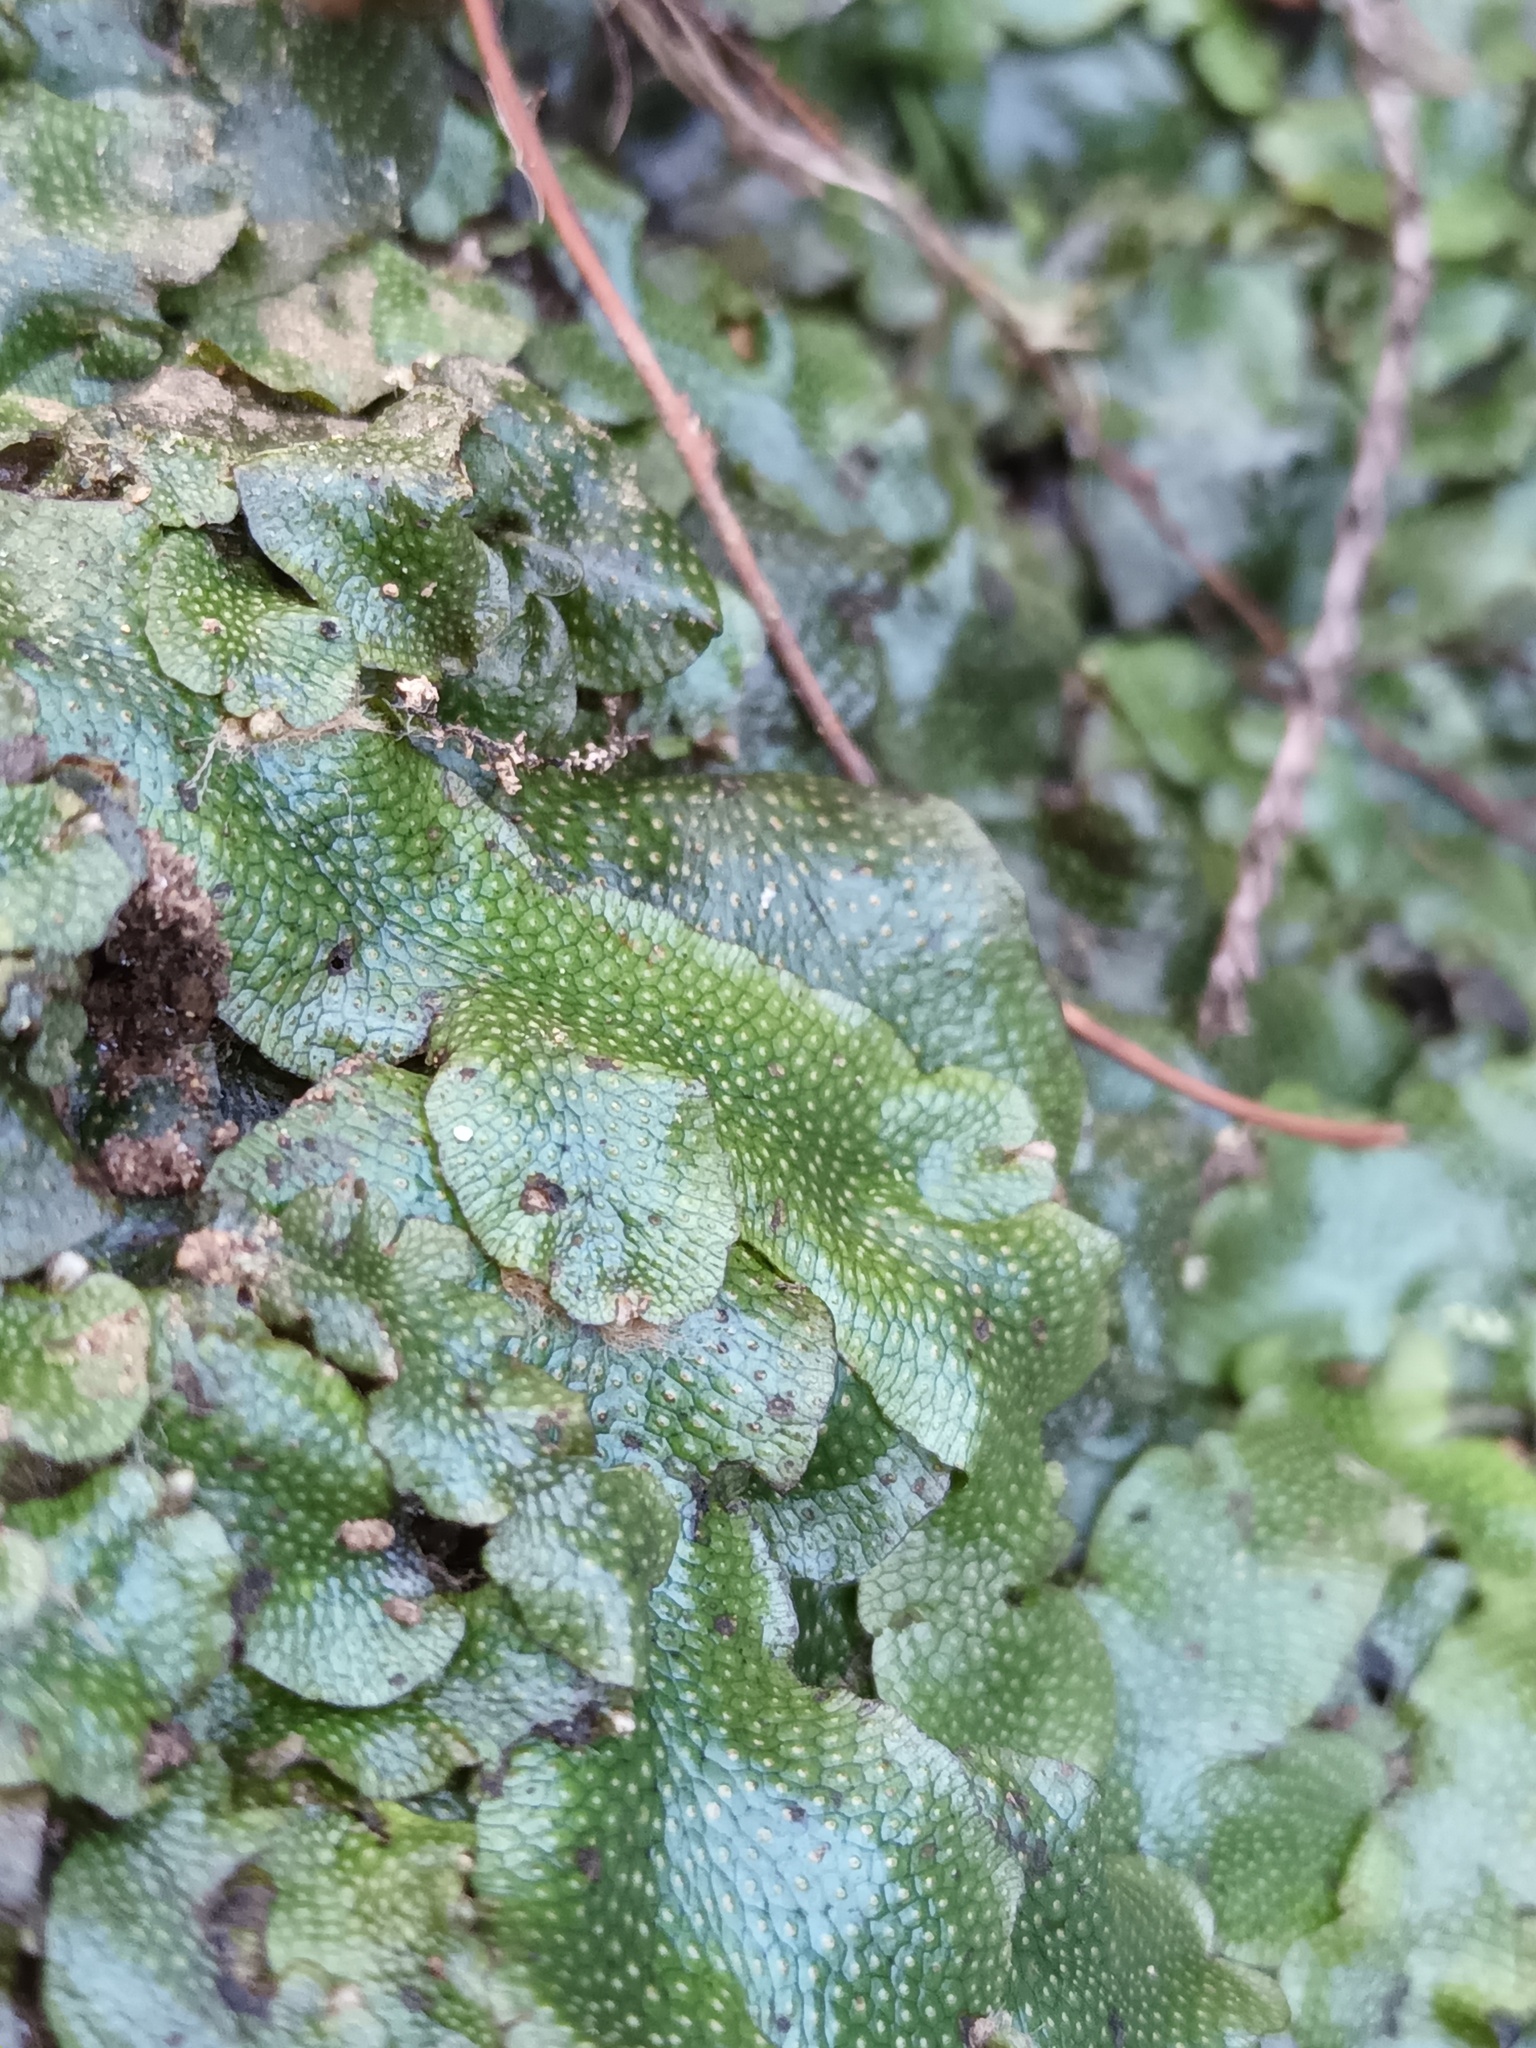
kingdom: Plantae
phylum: Marchantiophyta
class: Marchantiopsida
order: Marchantiales
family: Conocephalaceae
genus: Conocephalum
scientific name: Conocephalum conicum
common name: Great scented liverwort
